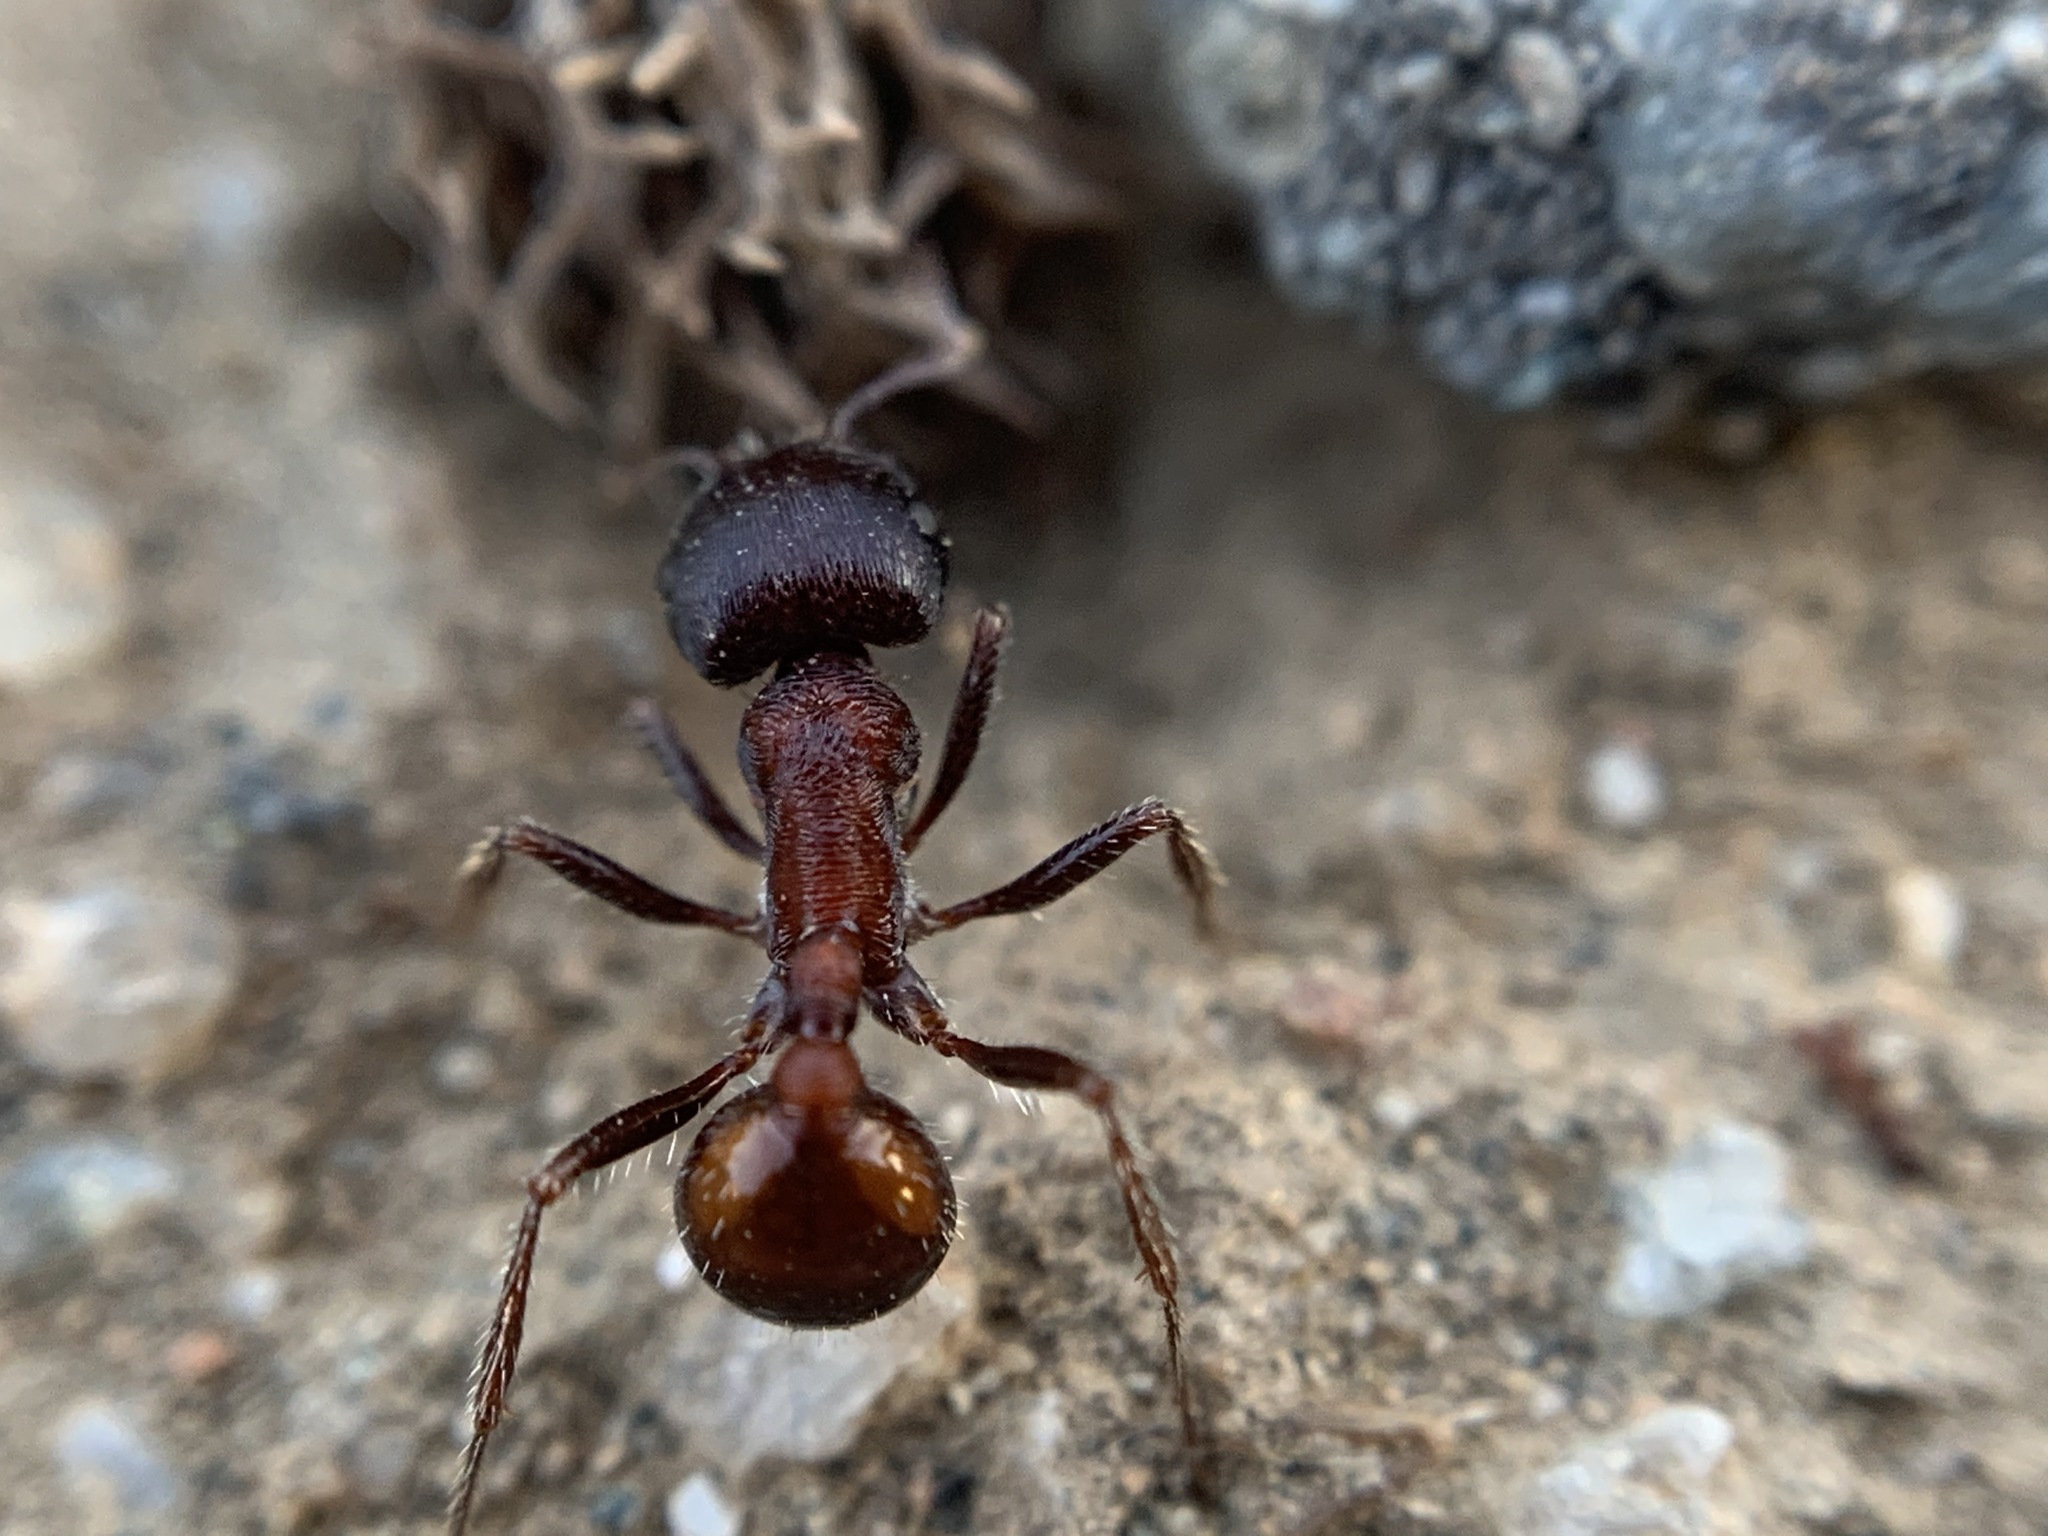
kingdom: Animalia
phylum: Arthropoda
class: Insecta
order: Hymenoptera
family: Formicidae
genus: Pogonomyrmex
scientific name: Pogonomyrmex rugosus
